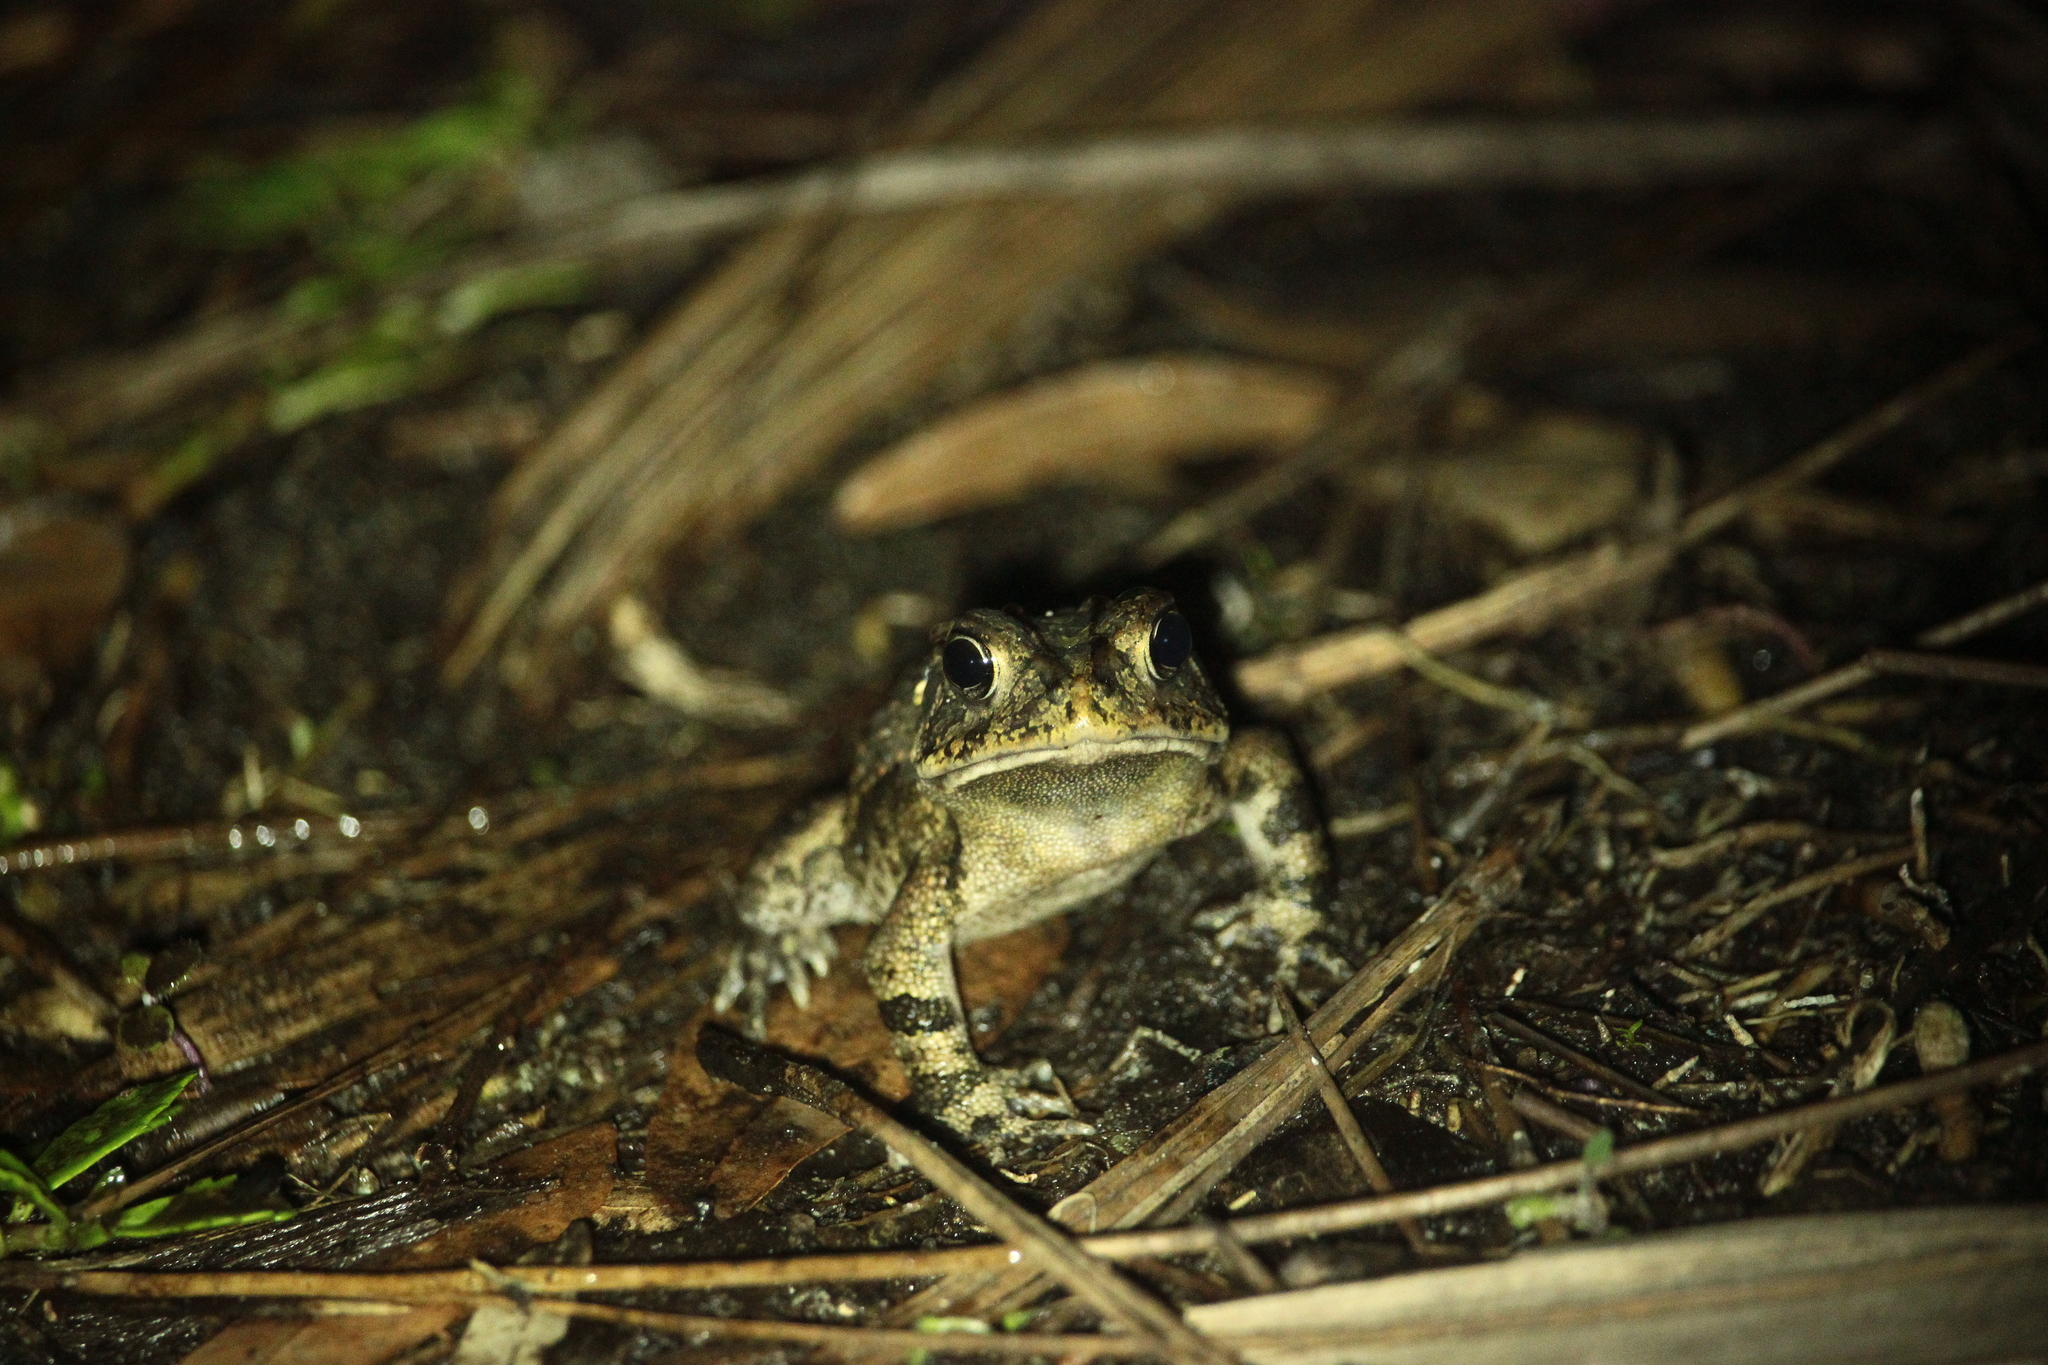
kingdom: Animalia
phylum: Chordata
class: Amphibia
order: Anura
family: Bufonidae
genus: Anaxyrus
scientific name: Anaxyrus terrestris
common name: Southern toad
